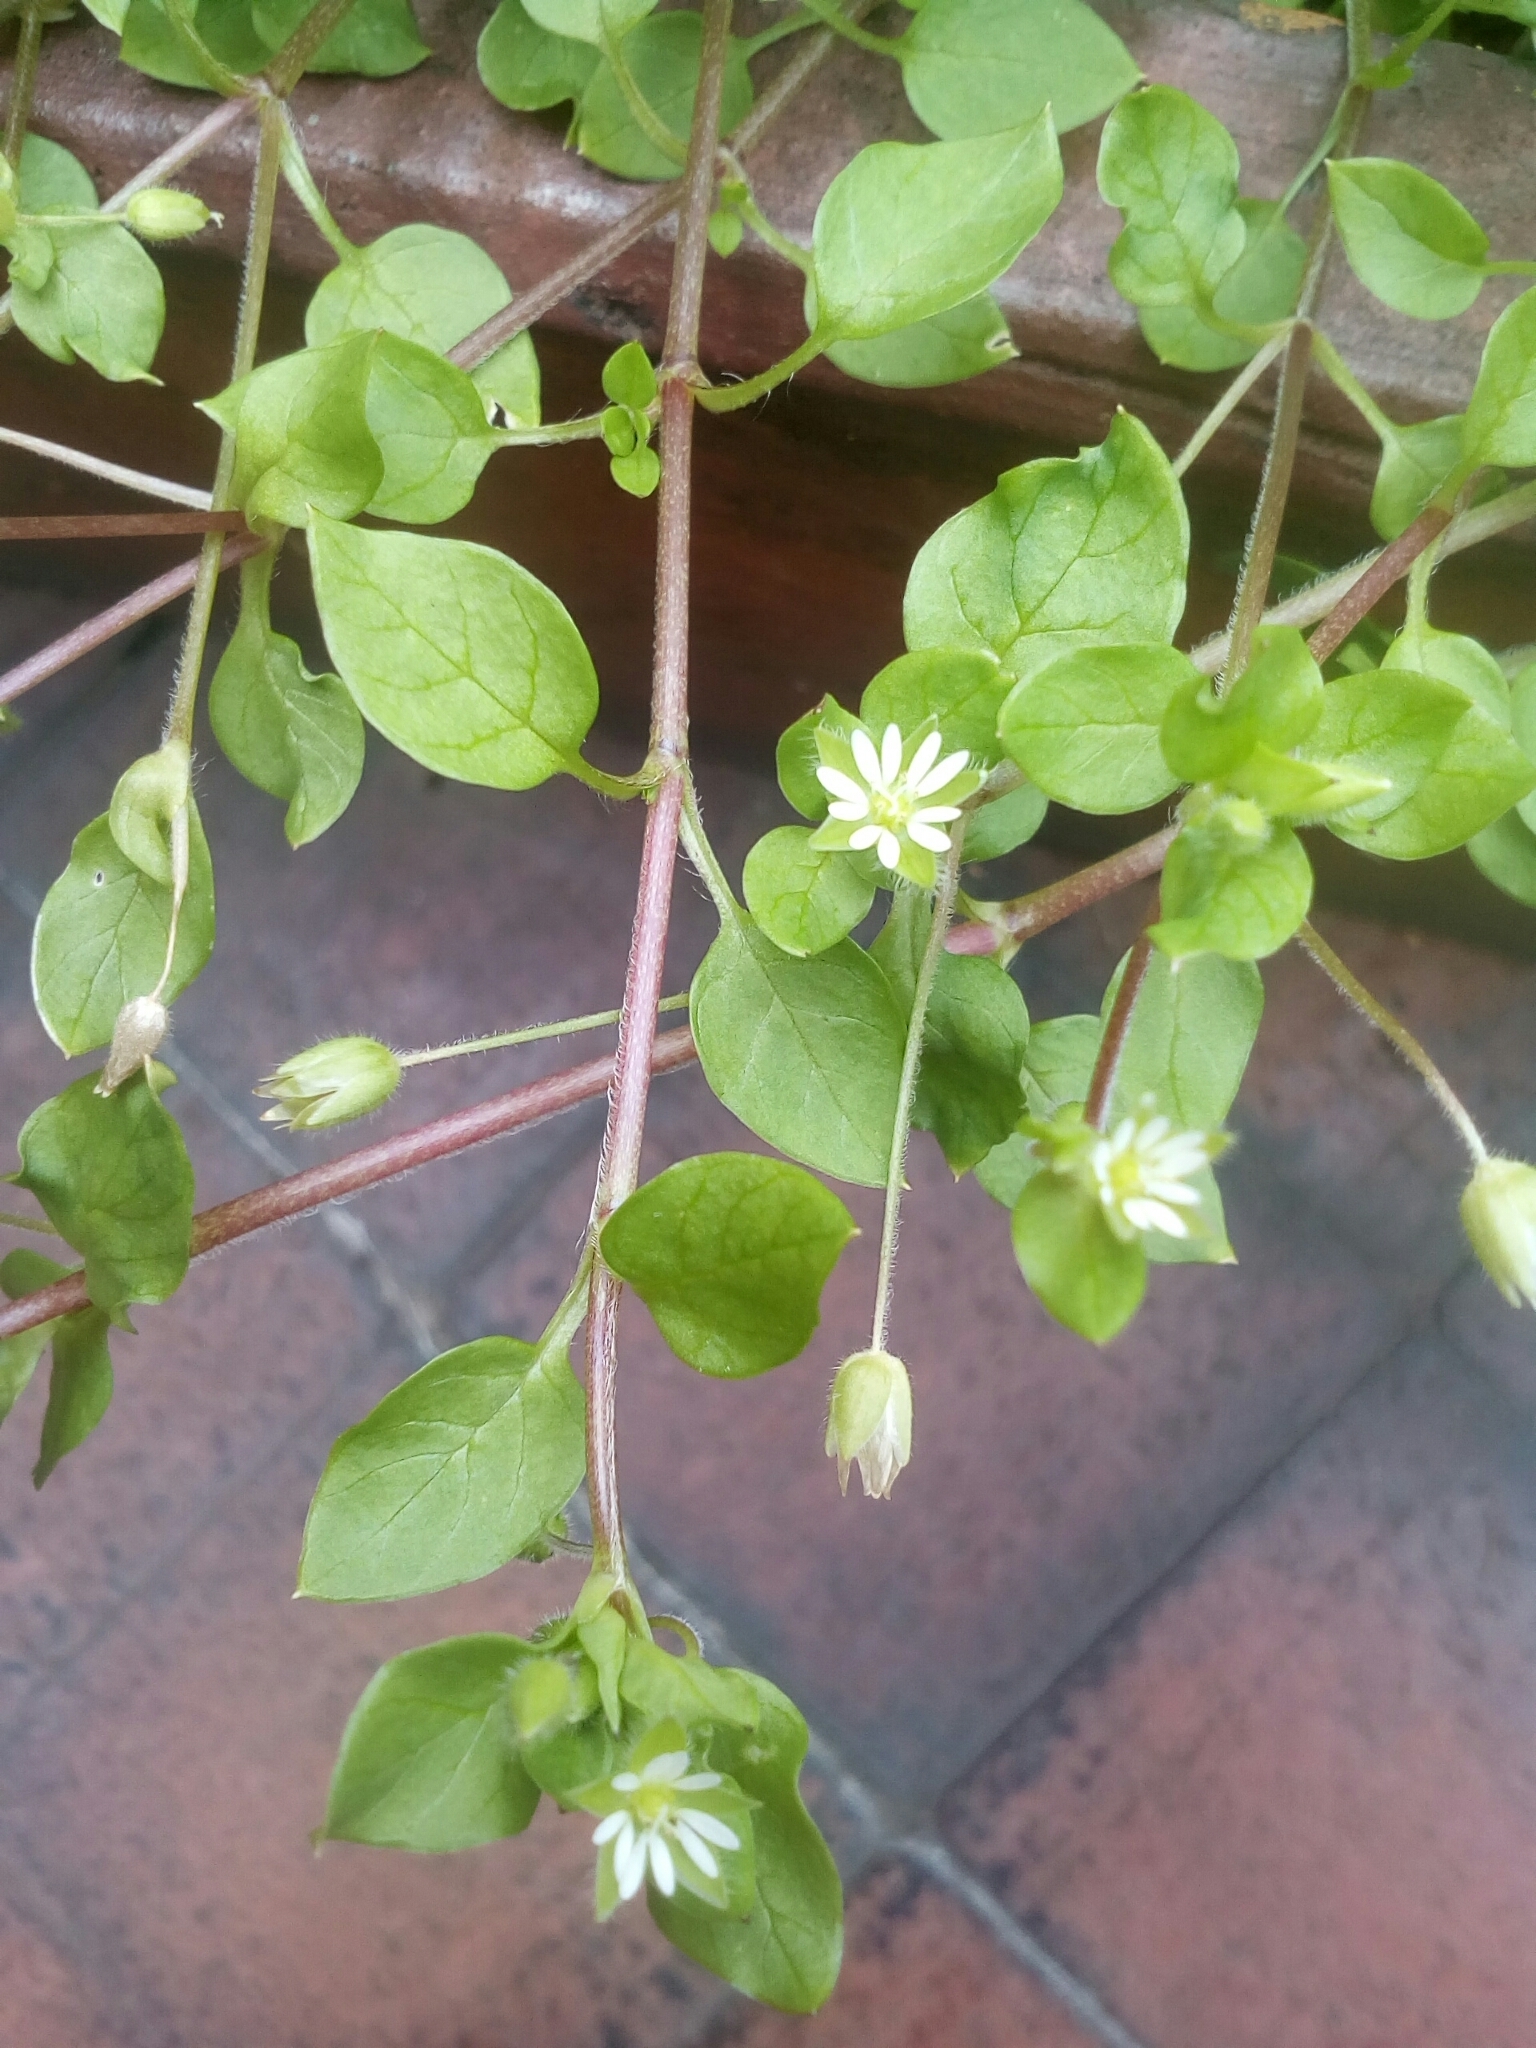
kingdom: Plantae
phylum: Tracheophyta
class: Magnoliopsida
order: Caryophyllales
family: Caryophyllaceae
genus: Stellaria
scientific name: Stellaria media
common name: Common chickweed
